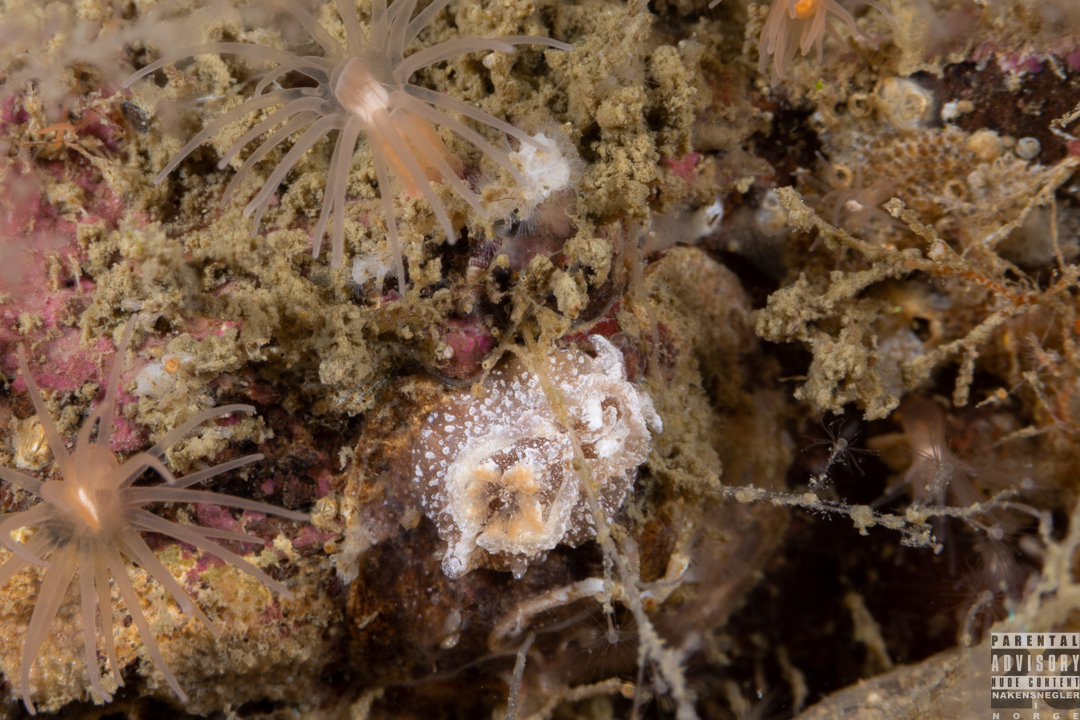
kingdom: Animalia
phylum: Mollusca
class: Gastropoda
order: Nudibranchia
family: Goniodorididae
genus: Pelagella
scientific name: Pelagella castanea
